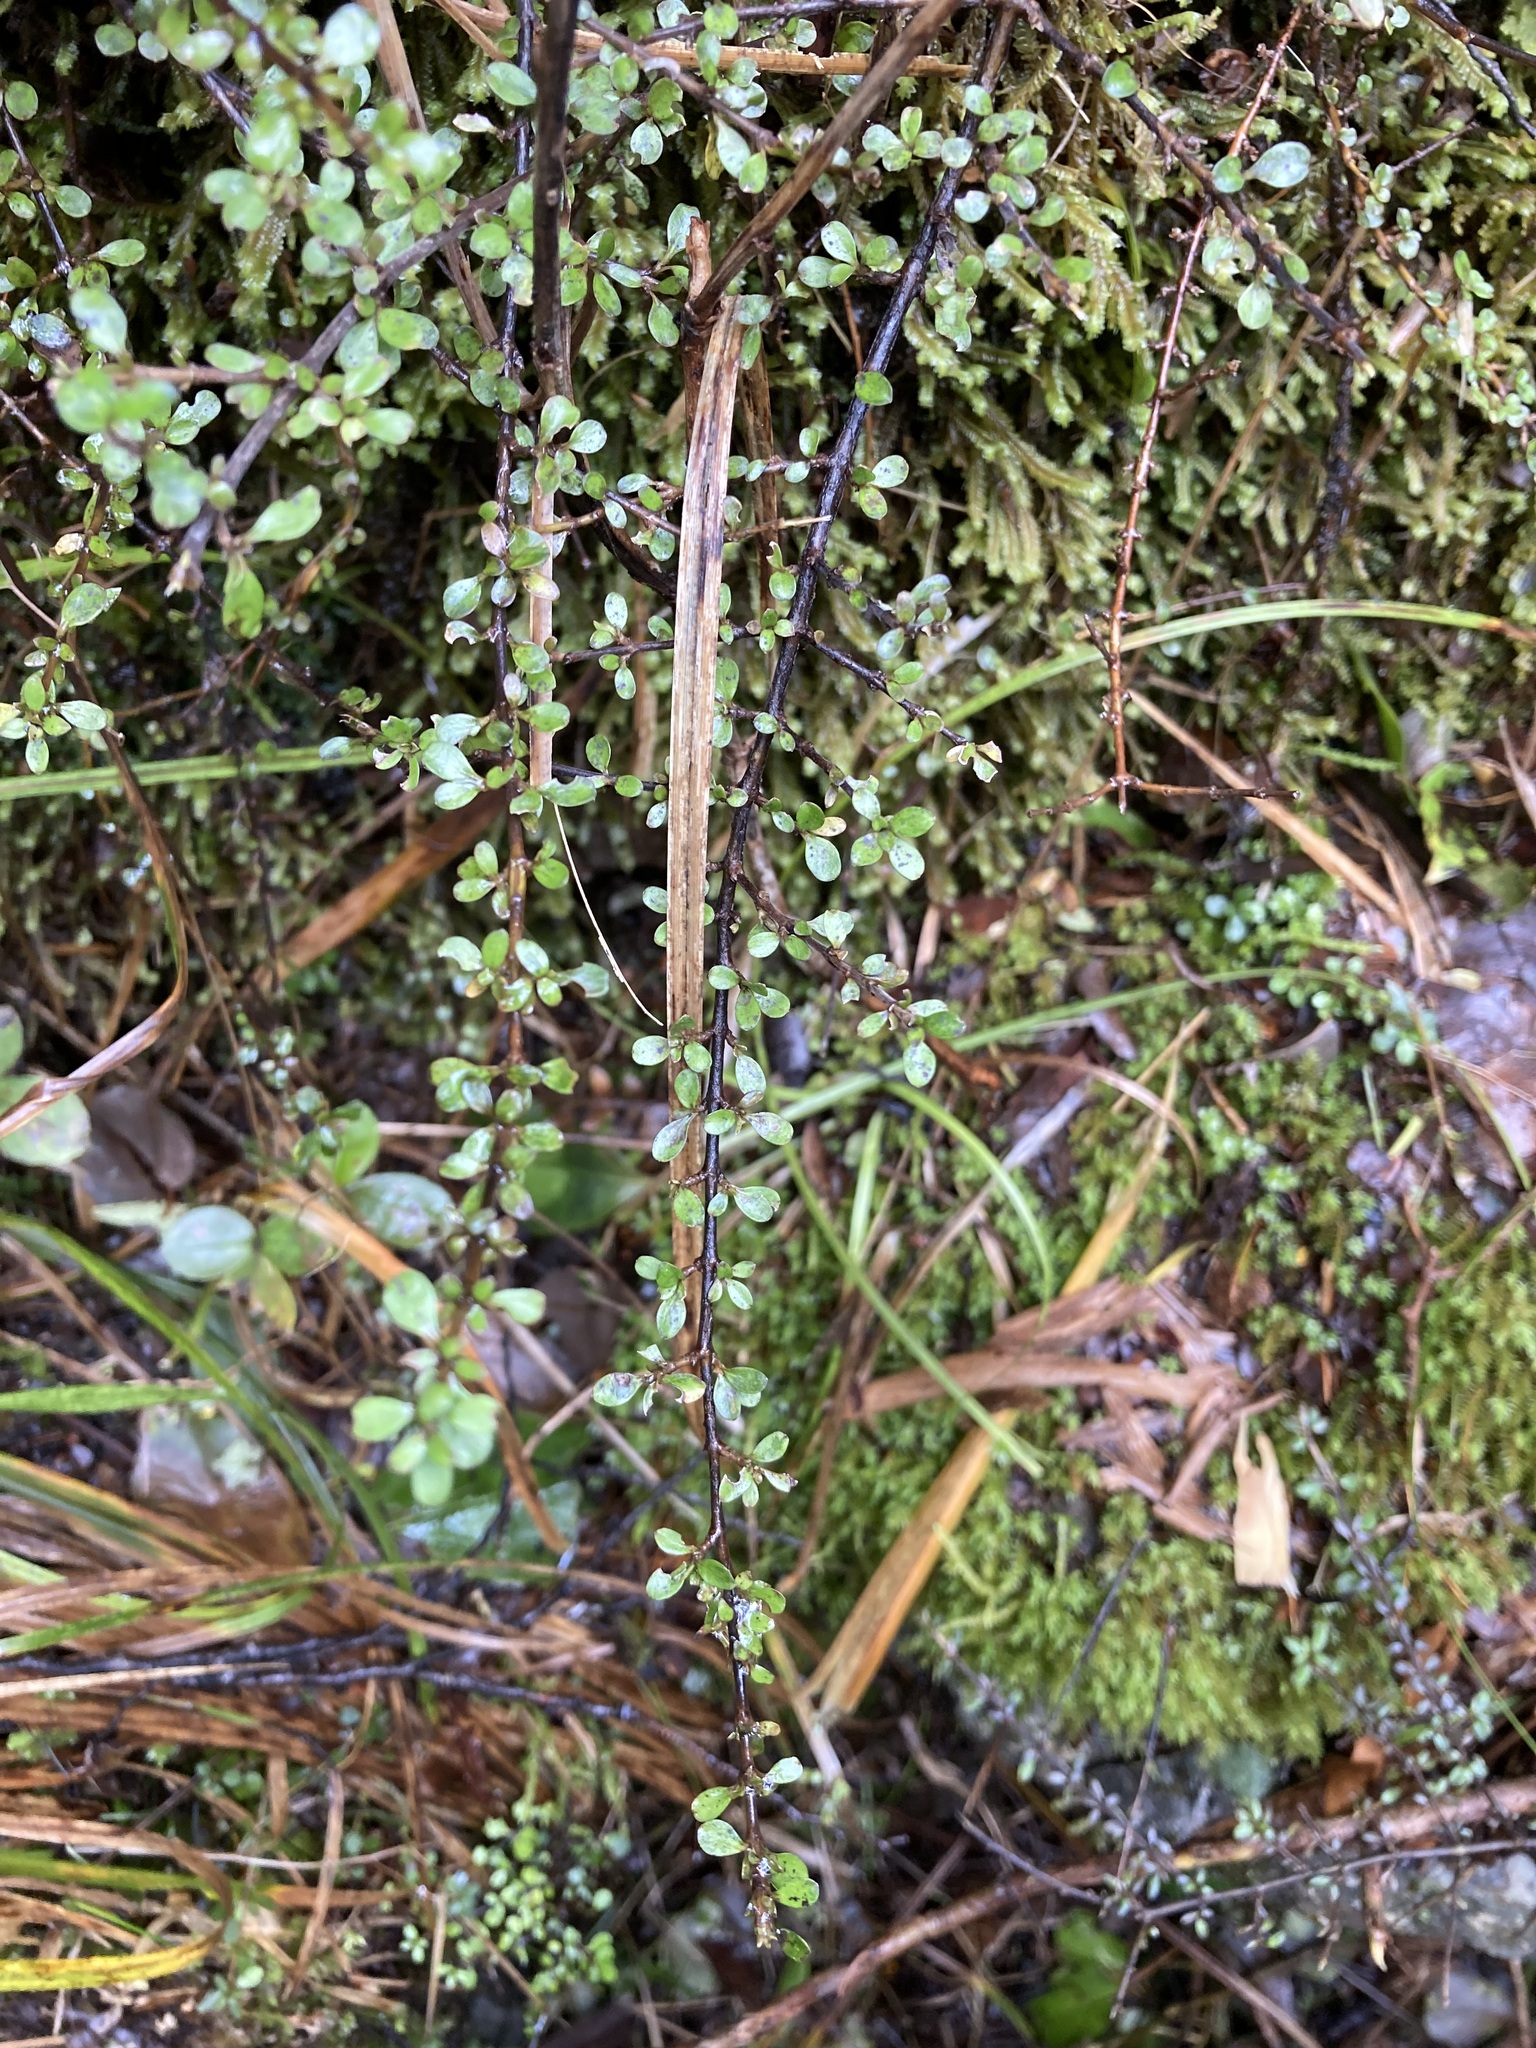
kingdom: Plantae
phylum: Tracheophyta
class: Magnoliopsida
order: Gentianales
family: Rubiaceae
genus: Coprosma
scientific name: Coprosma depressa
